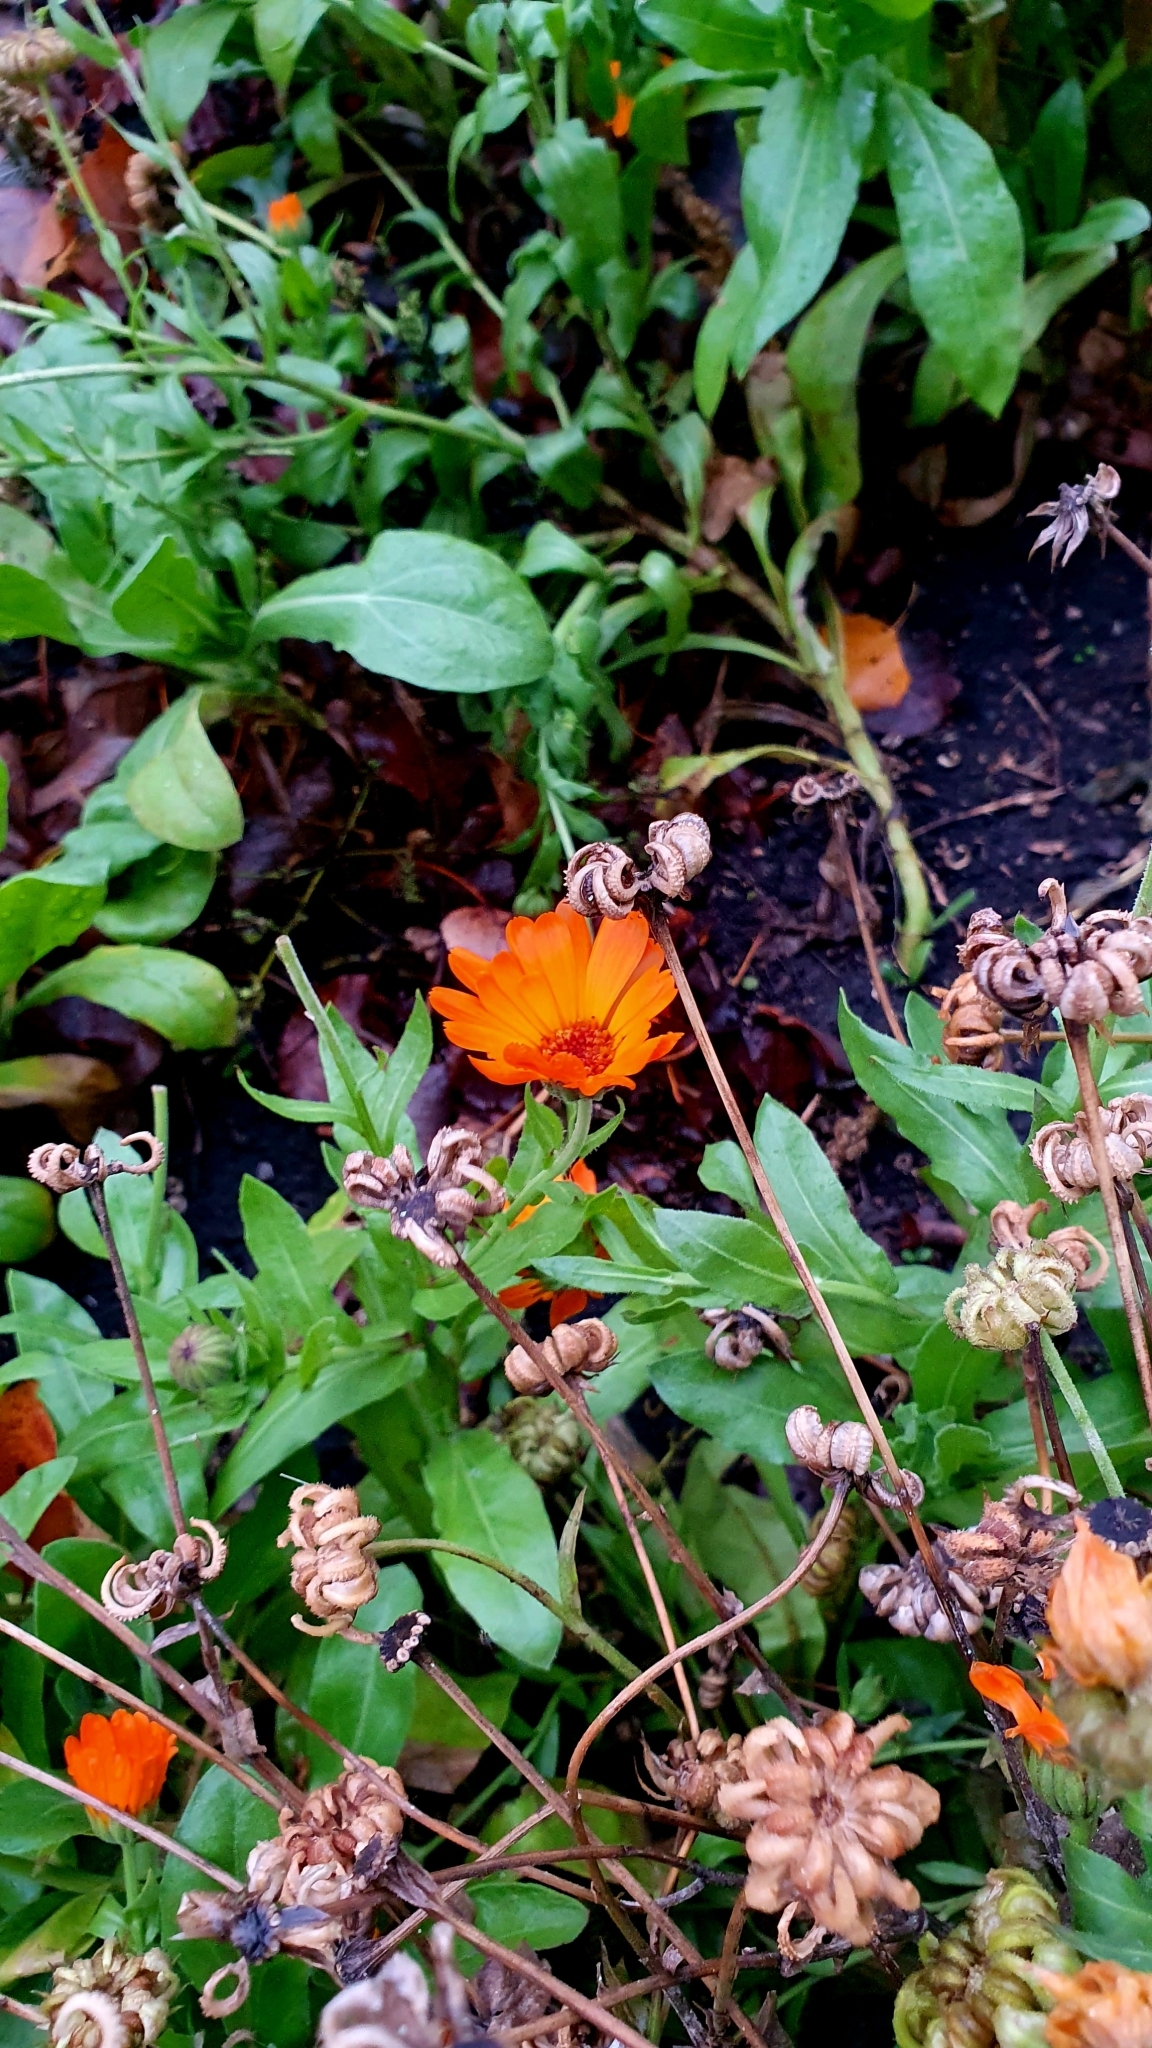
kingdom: Plantae
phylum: Tracheophyta
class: Magnoliopsida
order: Asterales
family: Asteraceae
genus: Calendula
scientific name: Calendula officinalis
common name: Pot marigold
